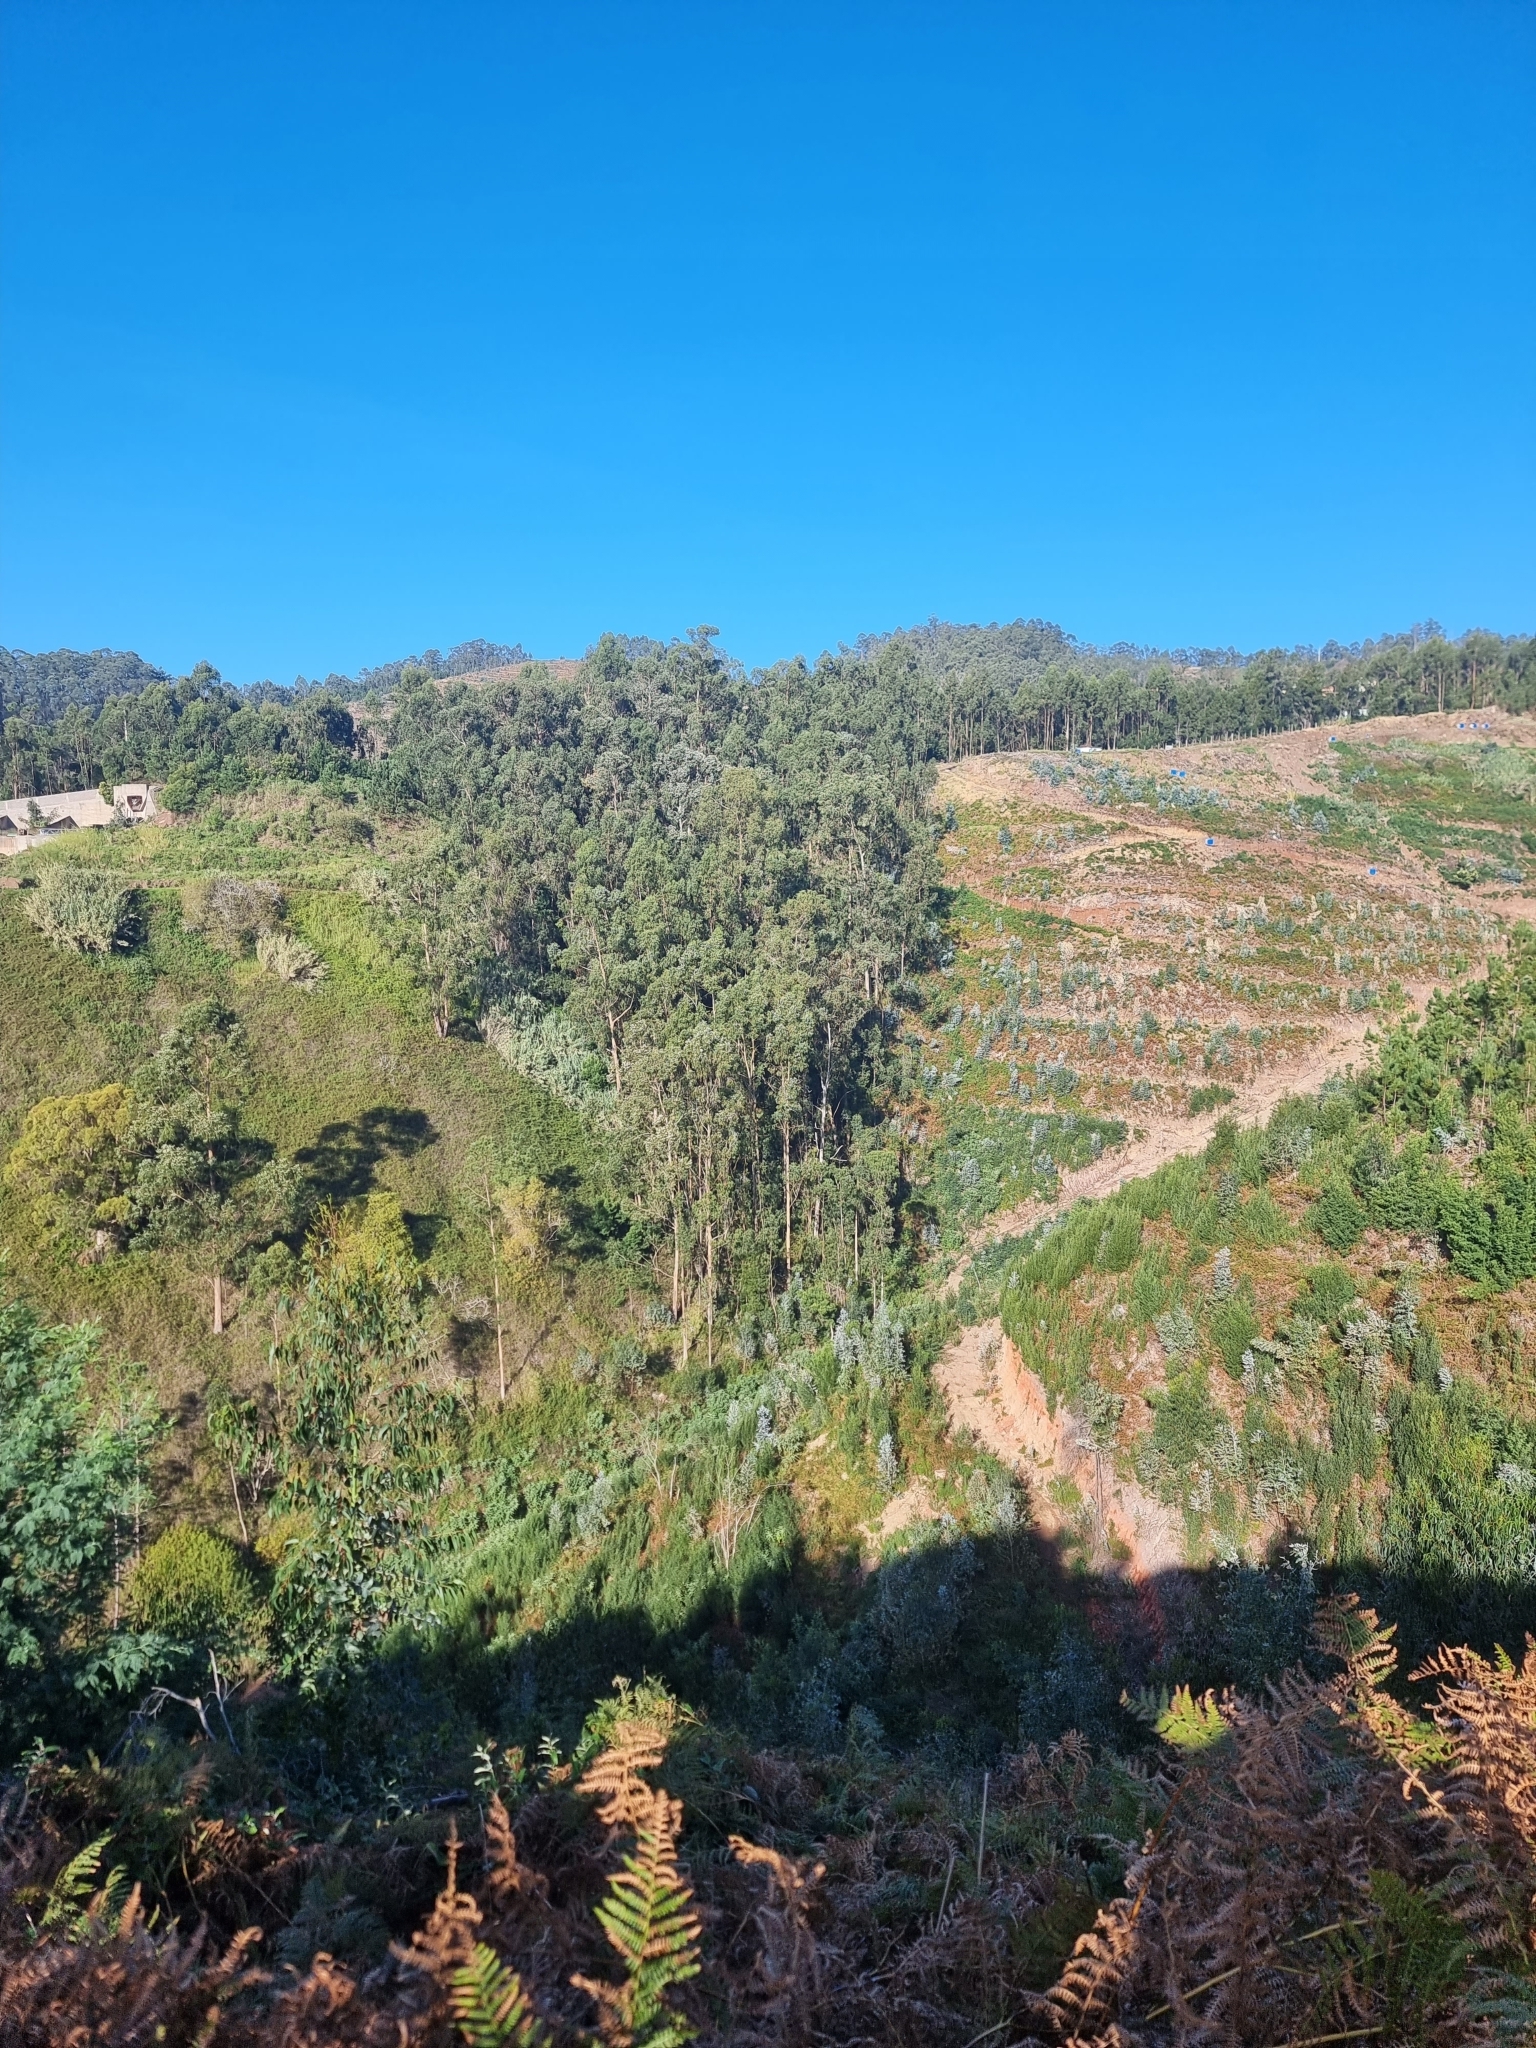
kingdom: Plantae
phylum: Tracheophyta
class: Magnoliopsida
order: Myrtales
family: Myrtaceae
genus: Eucalyptus
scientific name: Eucalyptus globulus
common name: Southern blue-gum
